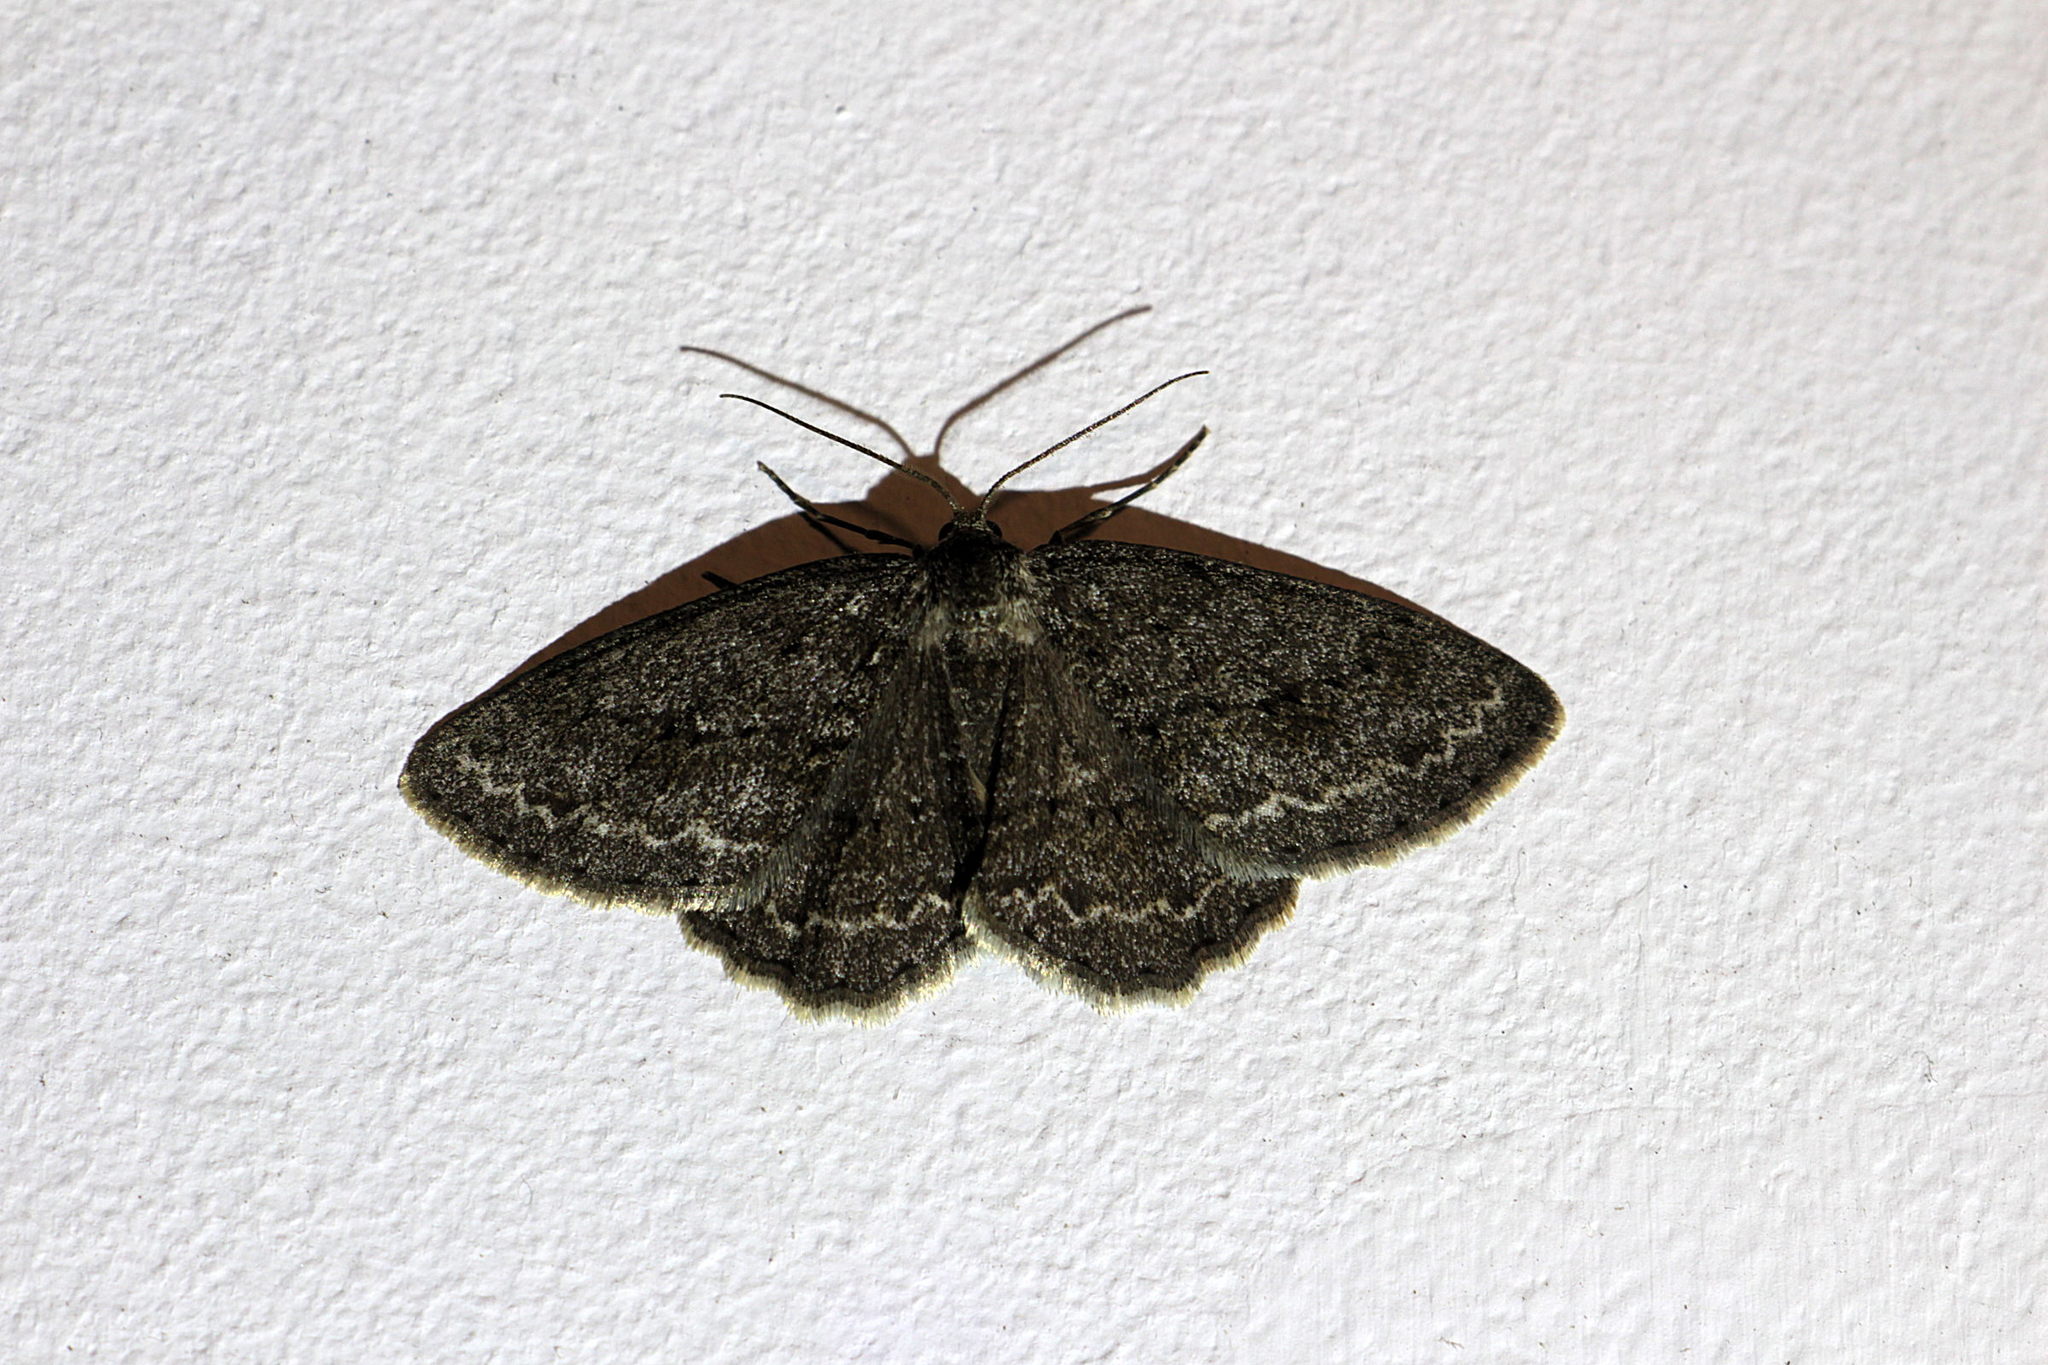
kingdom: Animalia
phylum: Arthropoda
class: Insecta
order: Lepidoptera
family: Geometridae
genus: Ectropis
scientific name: Ectropis crepuscularia
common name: Engrailed
